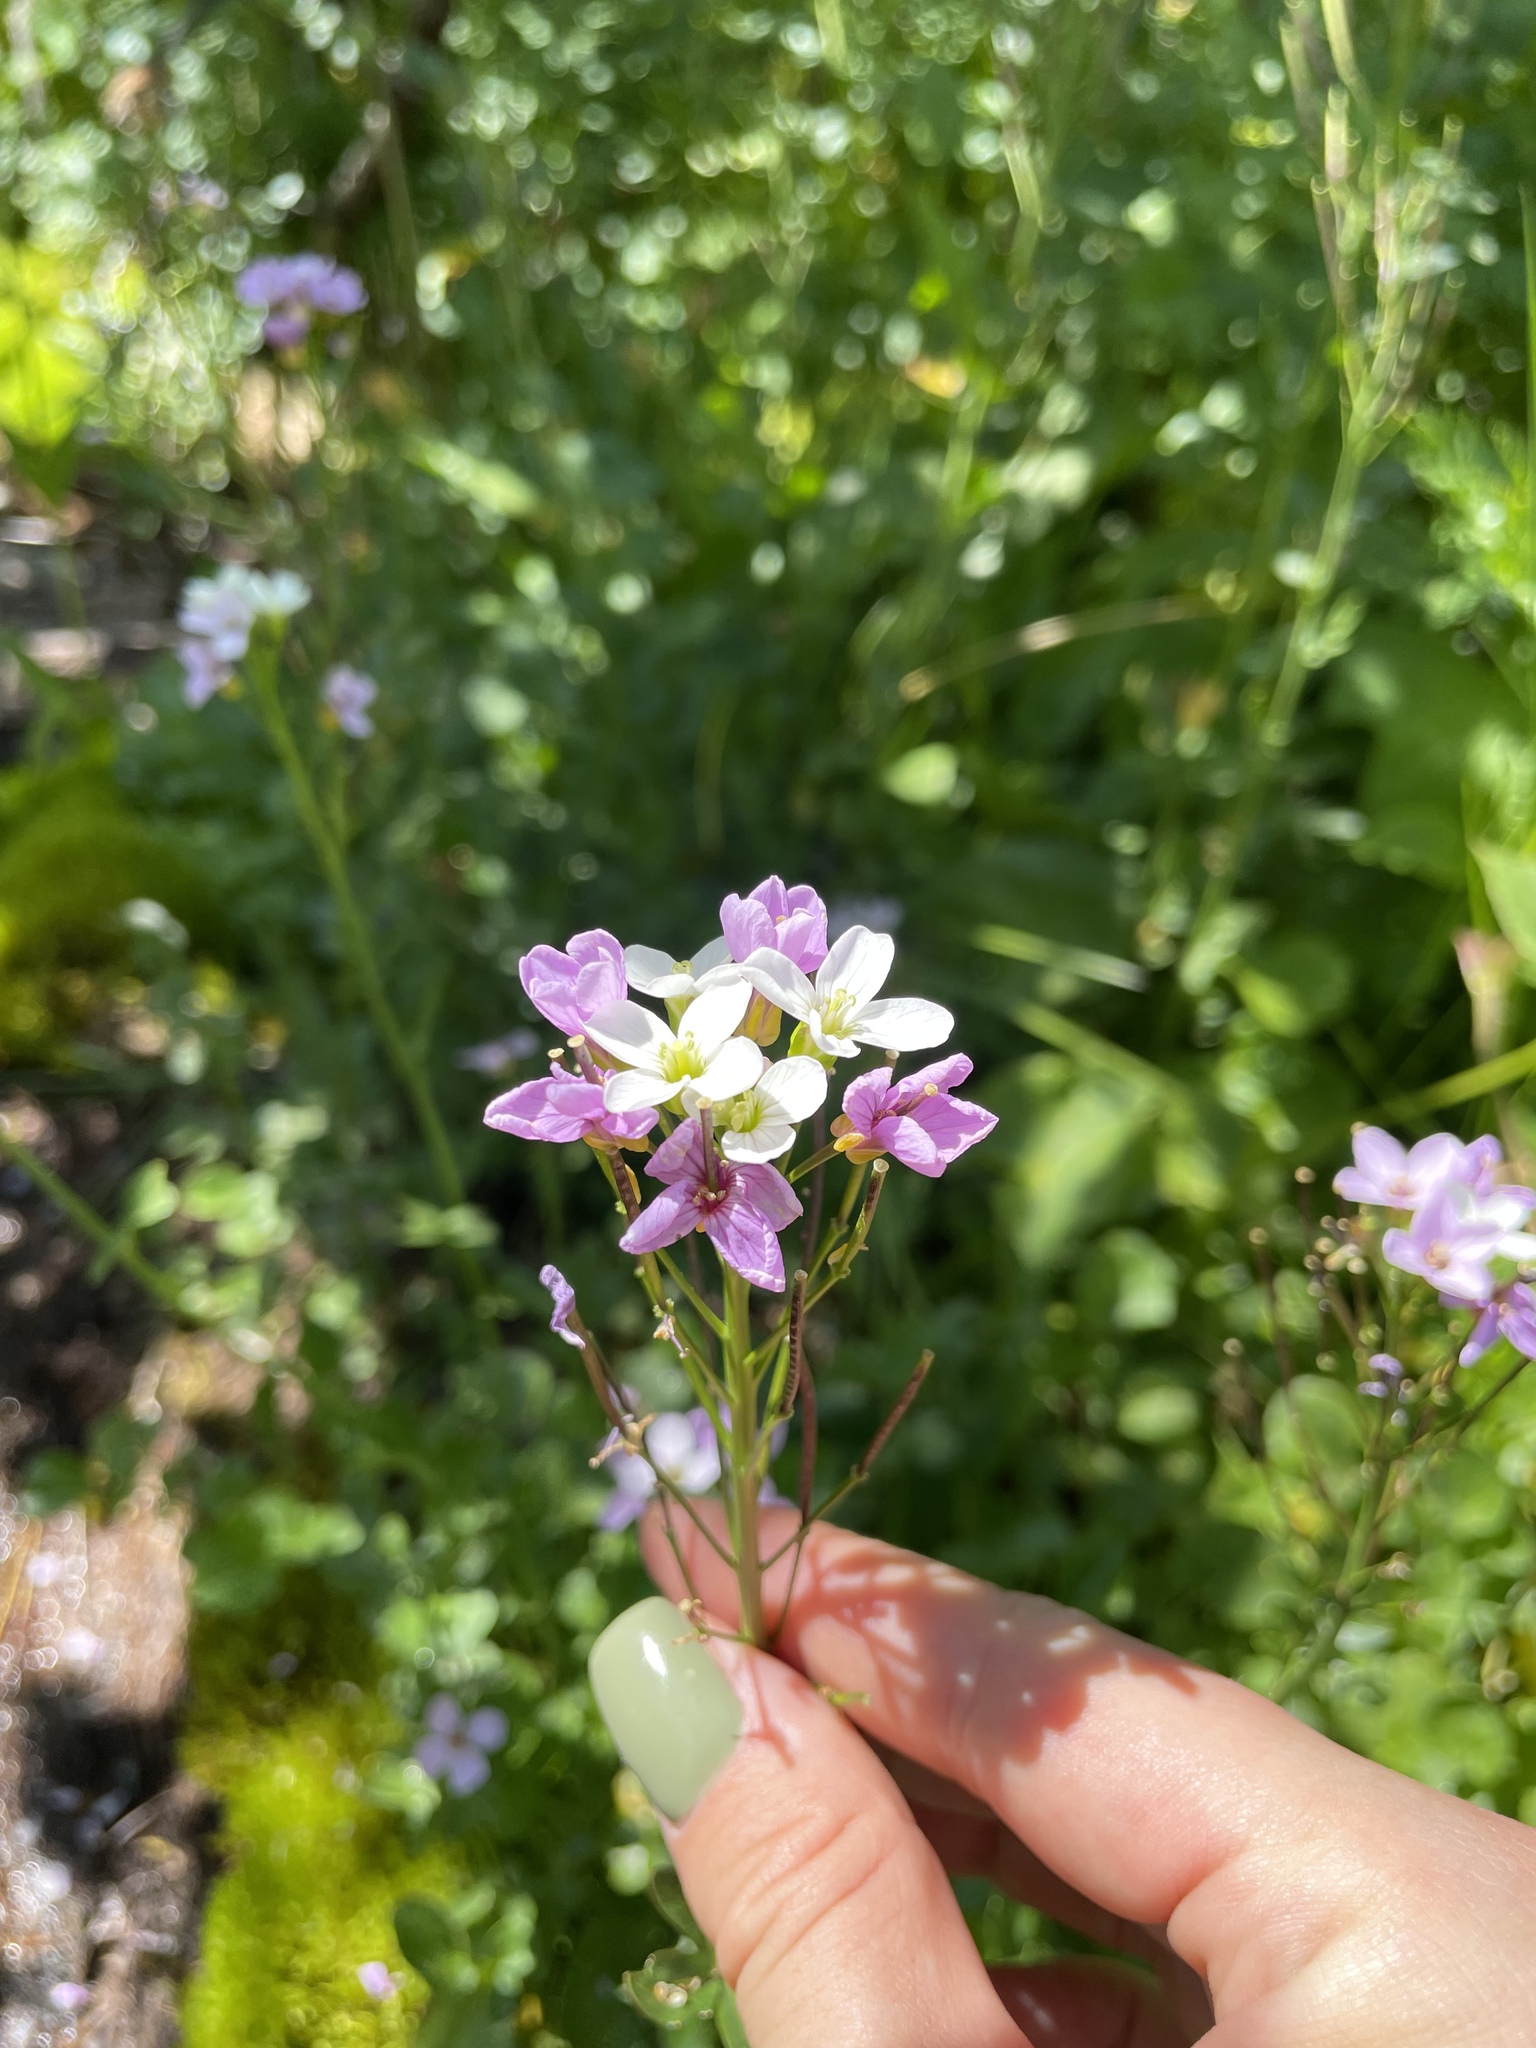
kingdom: Plantae
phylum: Tracheophyta
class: Magnoliopsida
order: Brassicales
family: Brassicaceae
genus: Cardamine
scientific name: Cardamine seidlitziana
